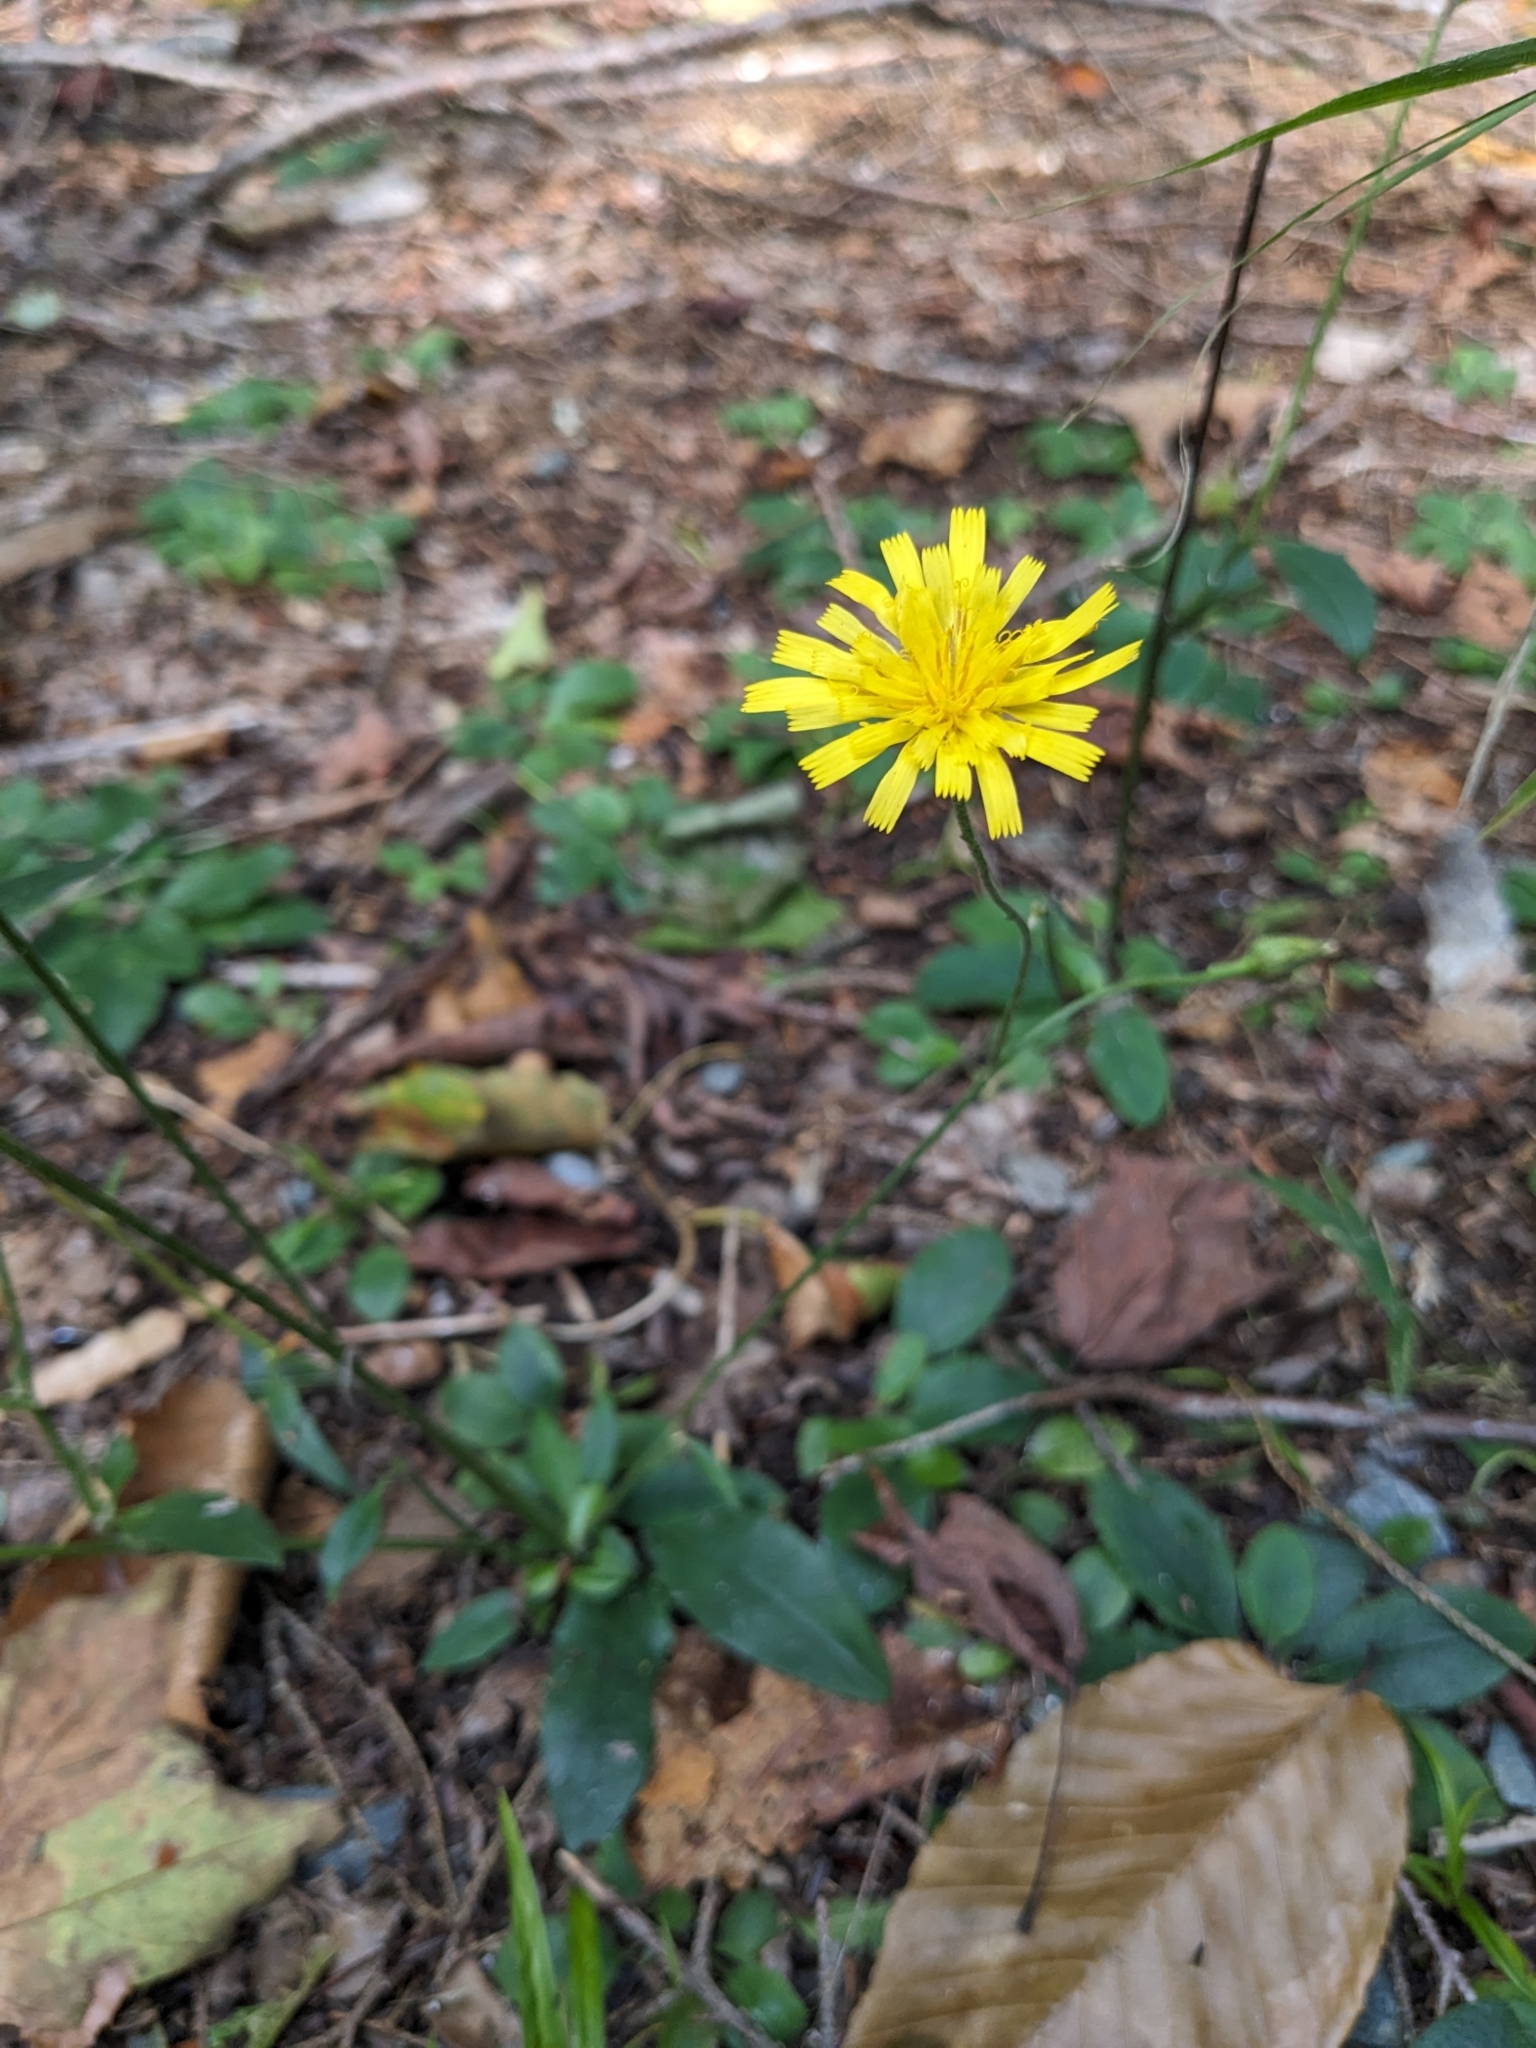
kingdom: Plantae
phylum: Tracheophyta
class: Magnoliopsida
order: Asterales
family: Asteraceae
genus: Hieracium
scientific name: Hieracium lachenalii
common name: Common hawkweed
